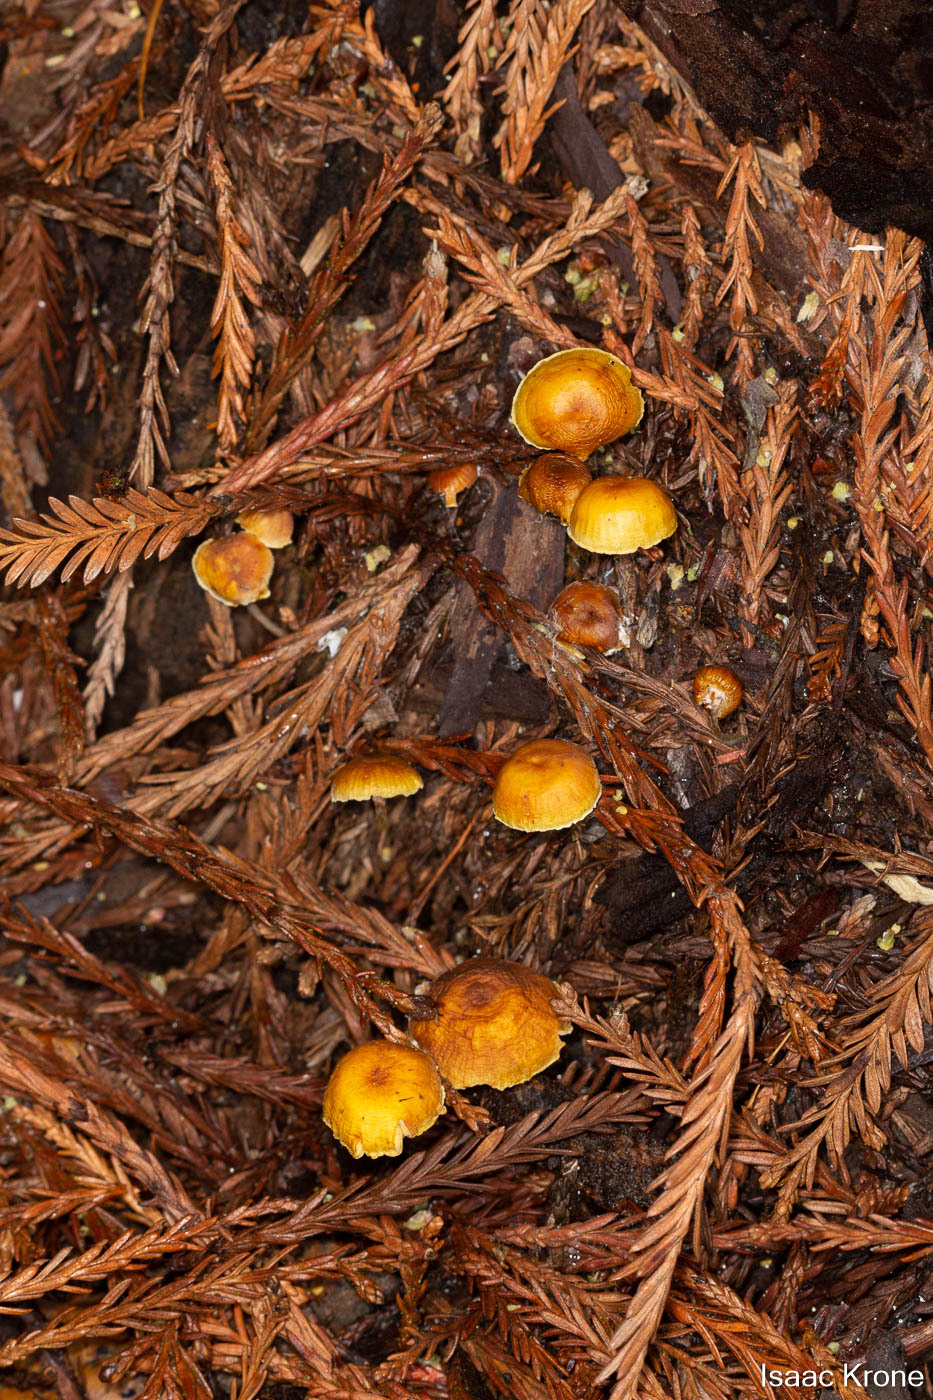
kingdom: Fungi
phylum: Basidiomycota
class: Agaricomycetes
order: Agaricales
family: Mycenaceae
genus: Xeromphalina
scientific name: Xeromphalina cauticinalis
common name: Pinelitter gingertail
